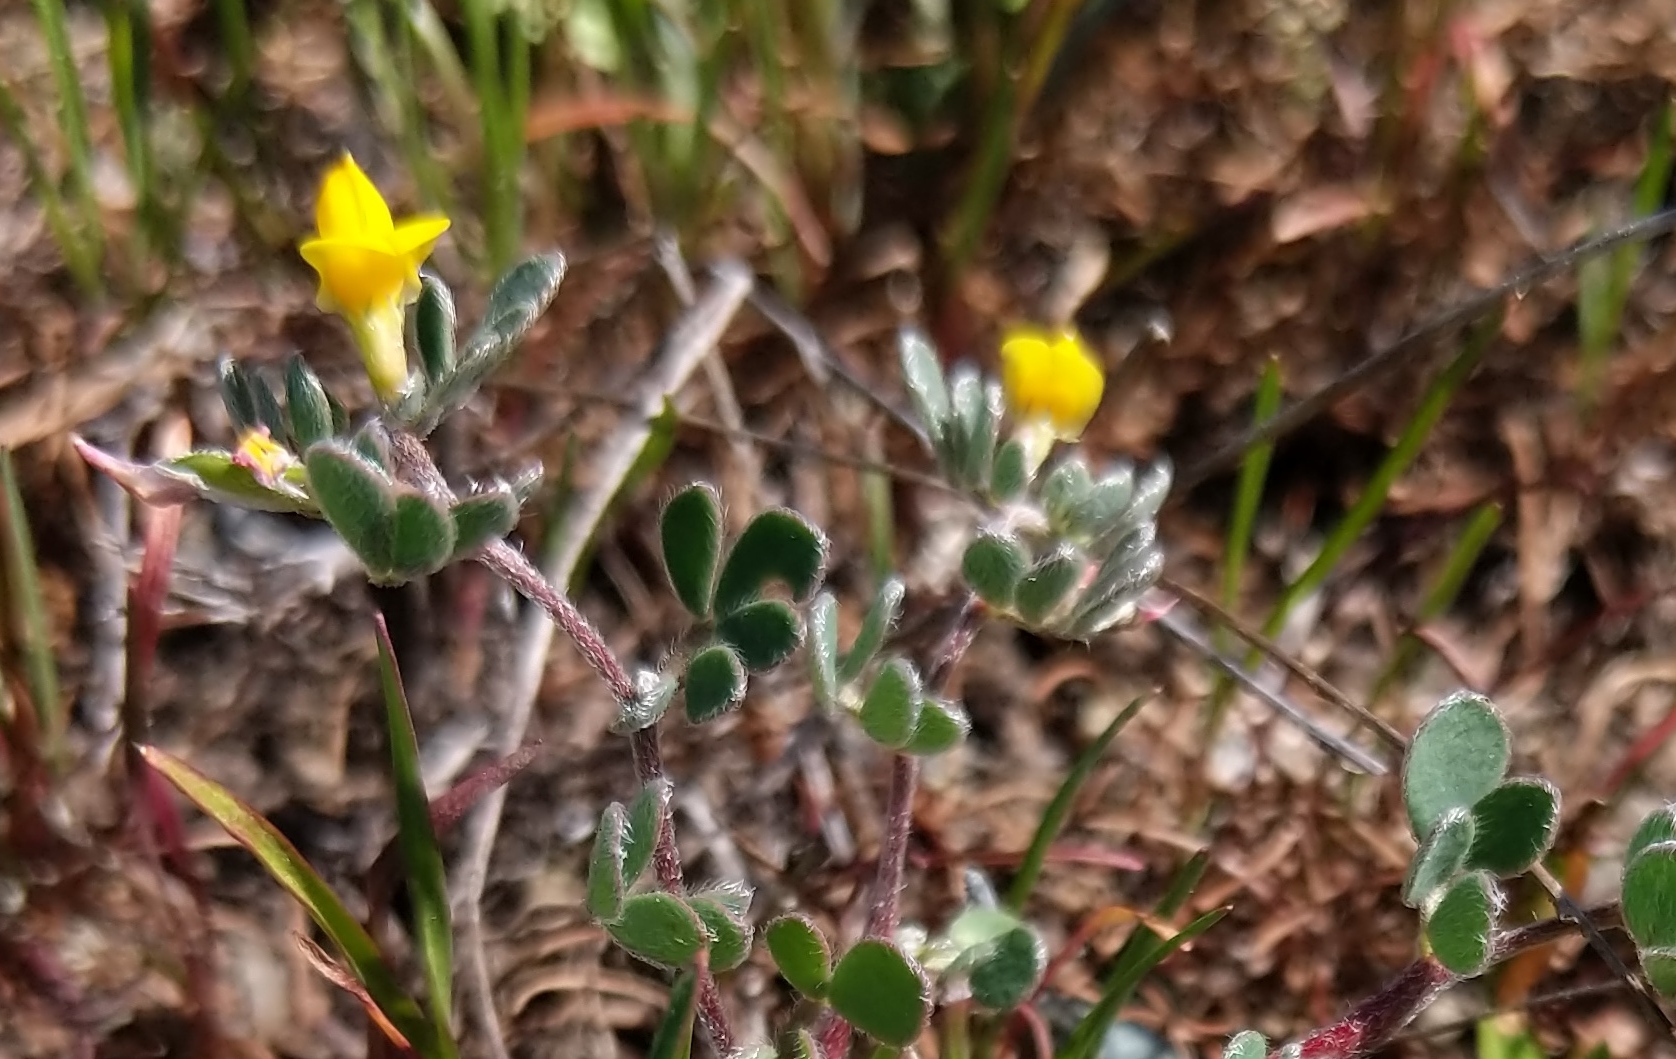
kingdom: Plantae
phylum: Tracheophyta
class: Magnoliopsida
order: Fabales
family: Fabaceae
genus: Acmispon
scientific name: Acmispon wrangelianus
